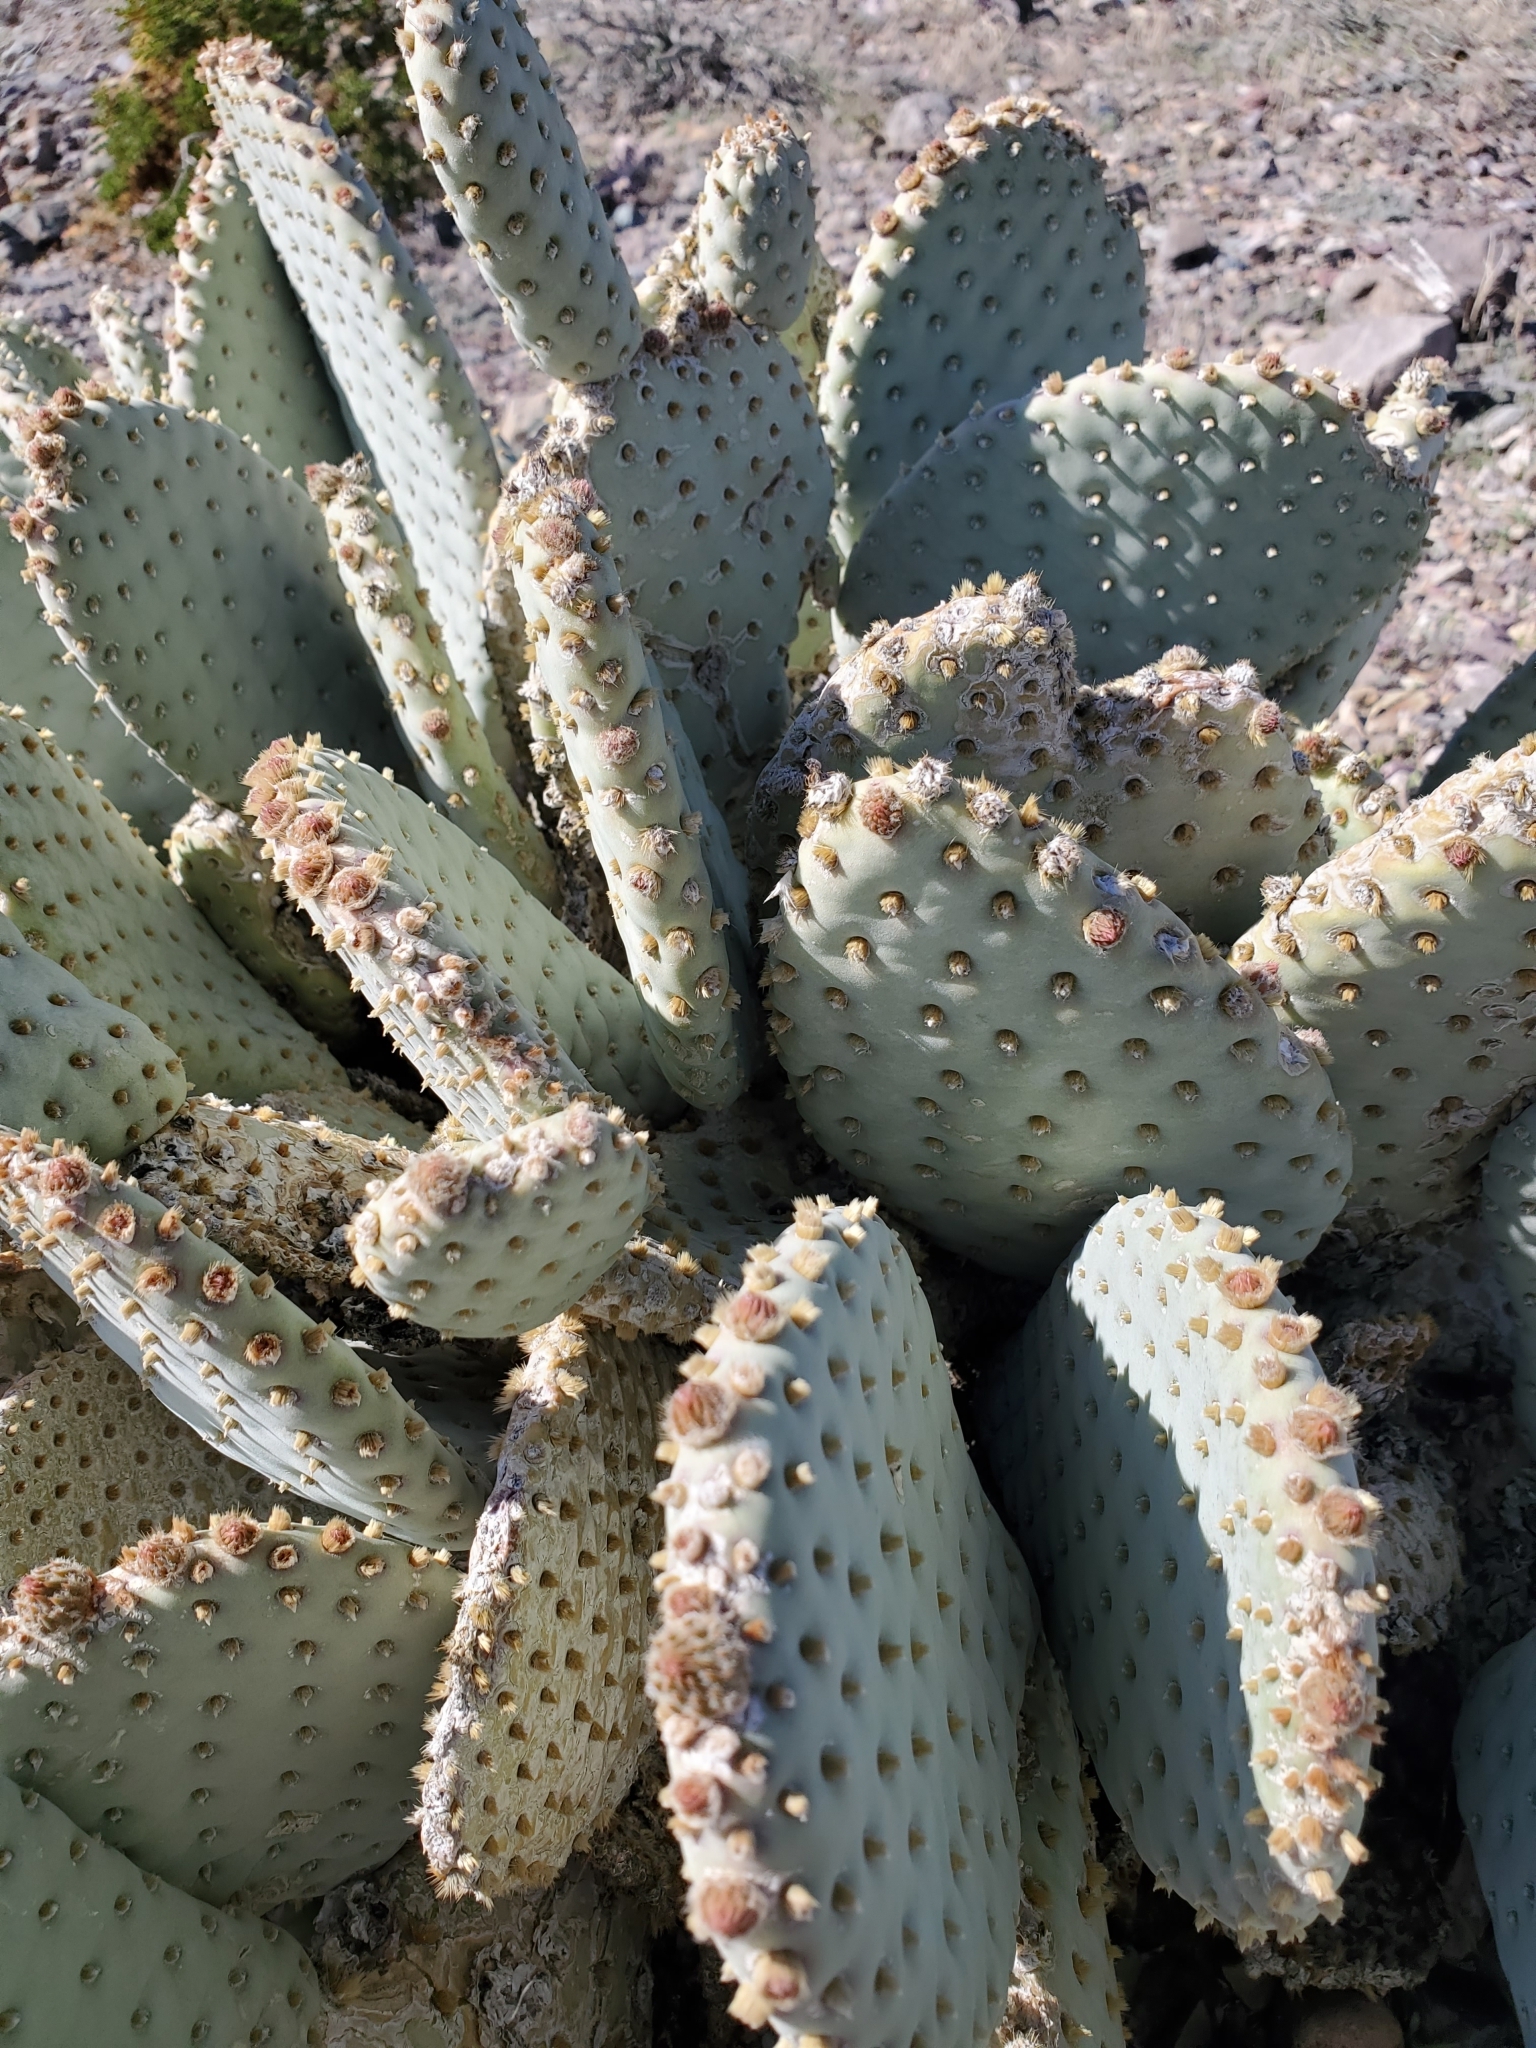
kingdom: Plantae
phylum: Tracheophyta
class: Magnoliopsida
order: Caryophyllales
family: Cactaceae
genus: Opuntia
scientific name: Opuntia basilaris
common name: Beavertail prickly-pear
